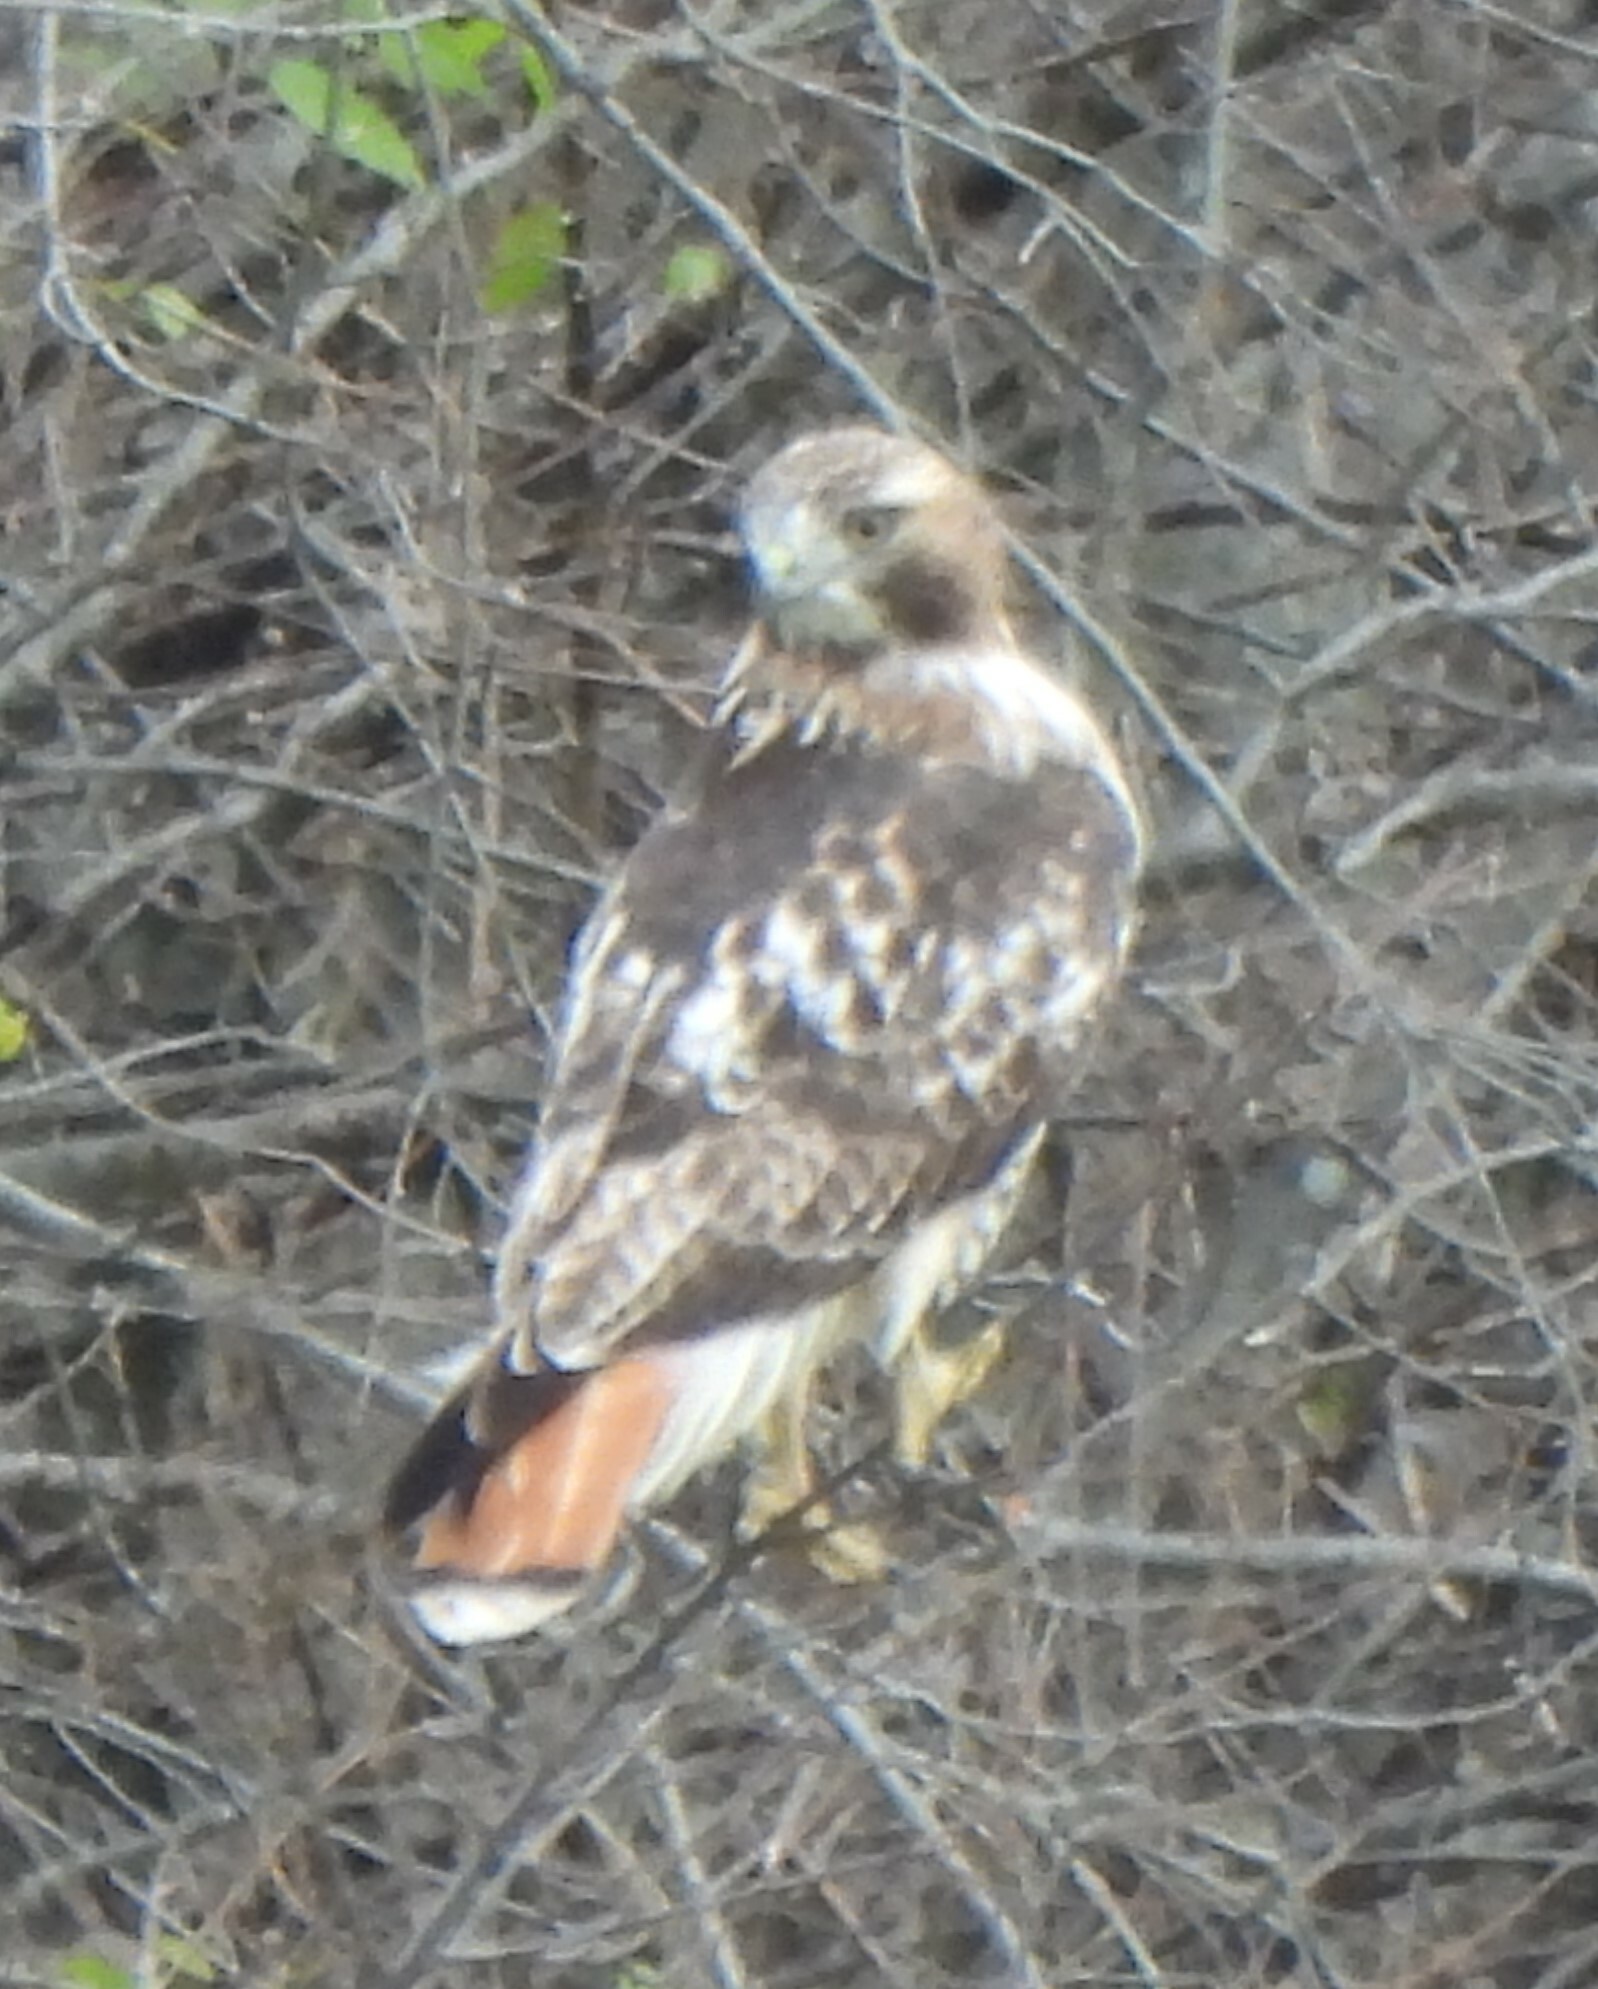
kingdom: Animalia
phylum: Chordata
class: Aves
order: Accipitriformes
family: Accipitridae
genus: Buteo
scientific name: Buteo jamaicensis
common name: Red-tailed hawk
